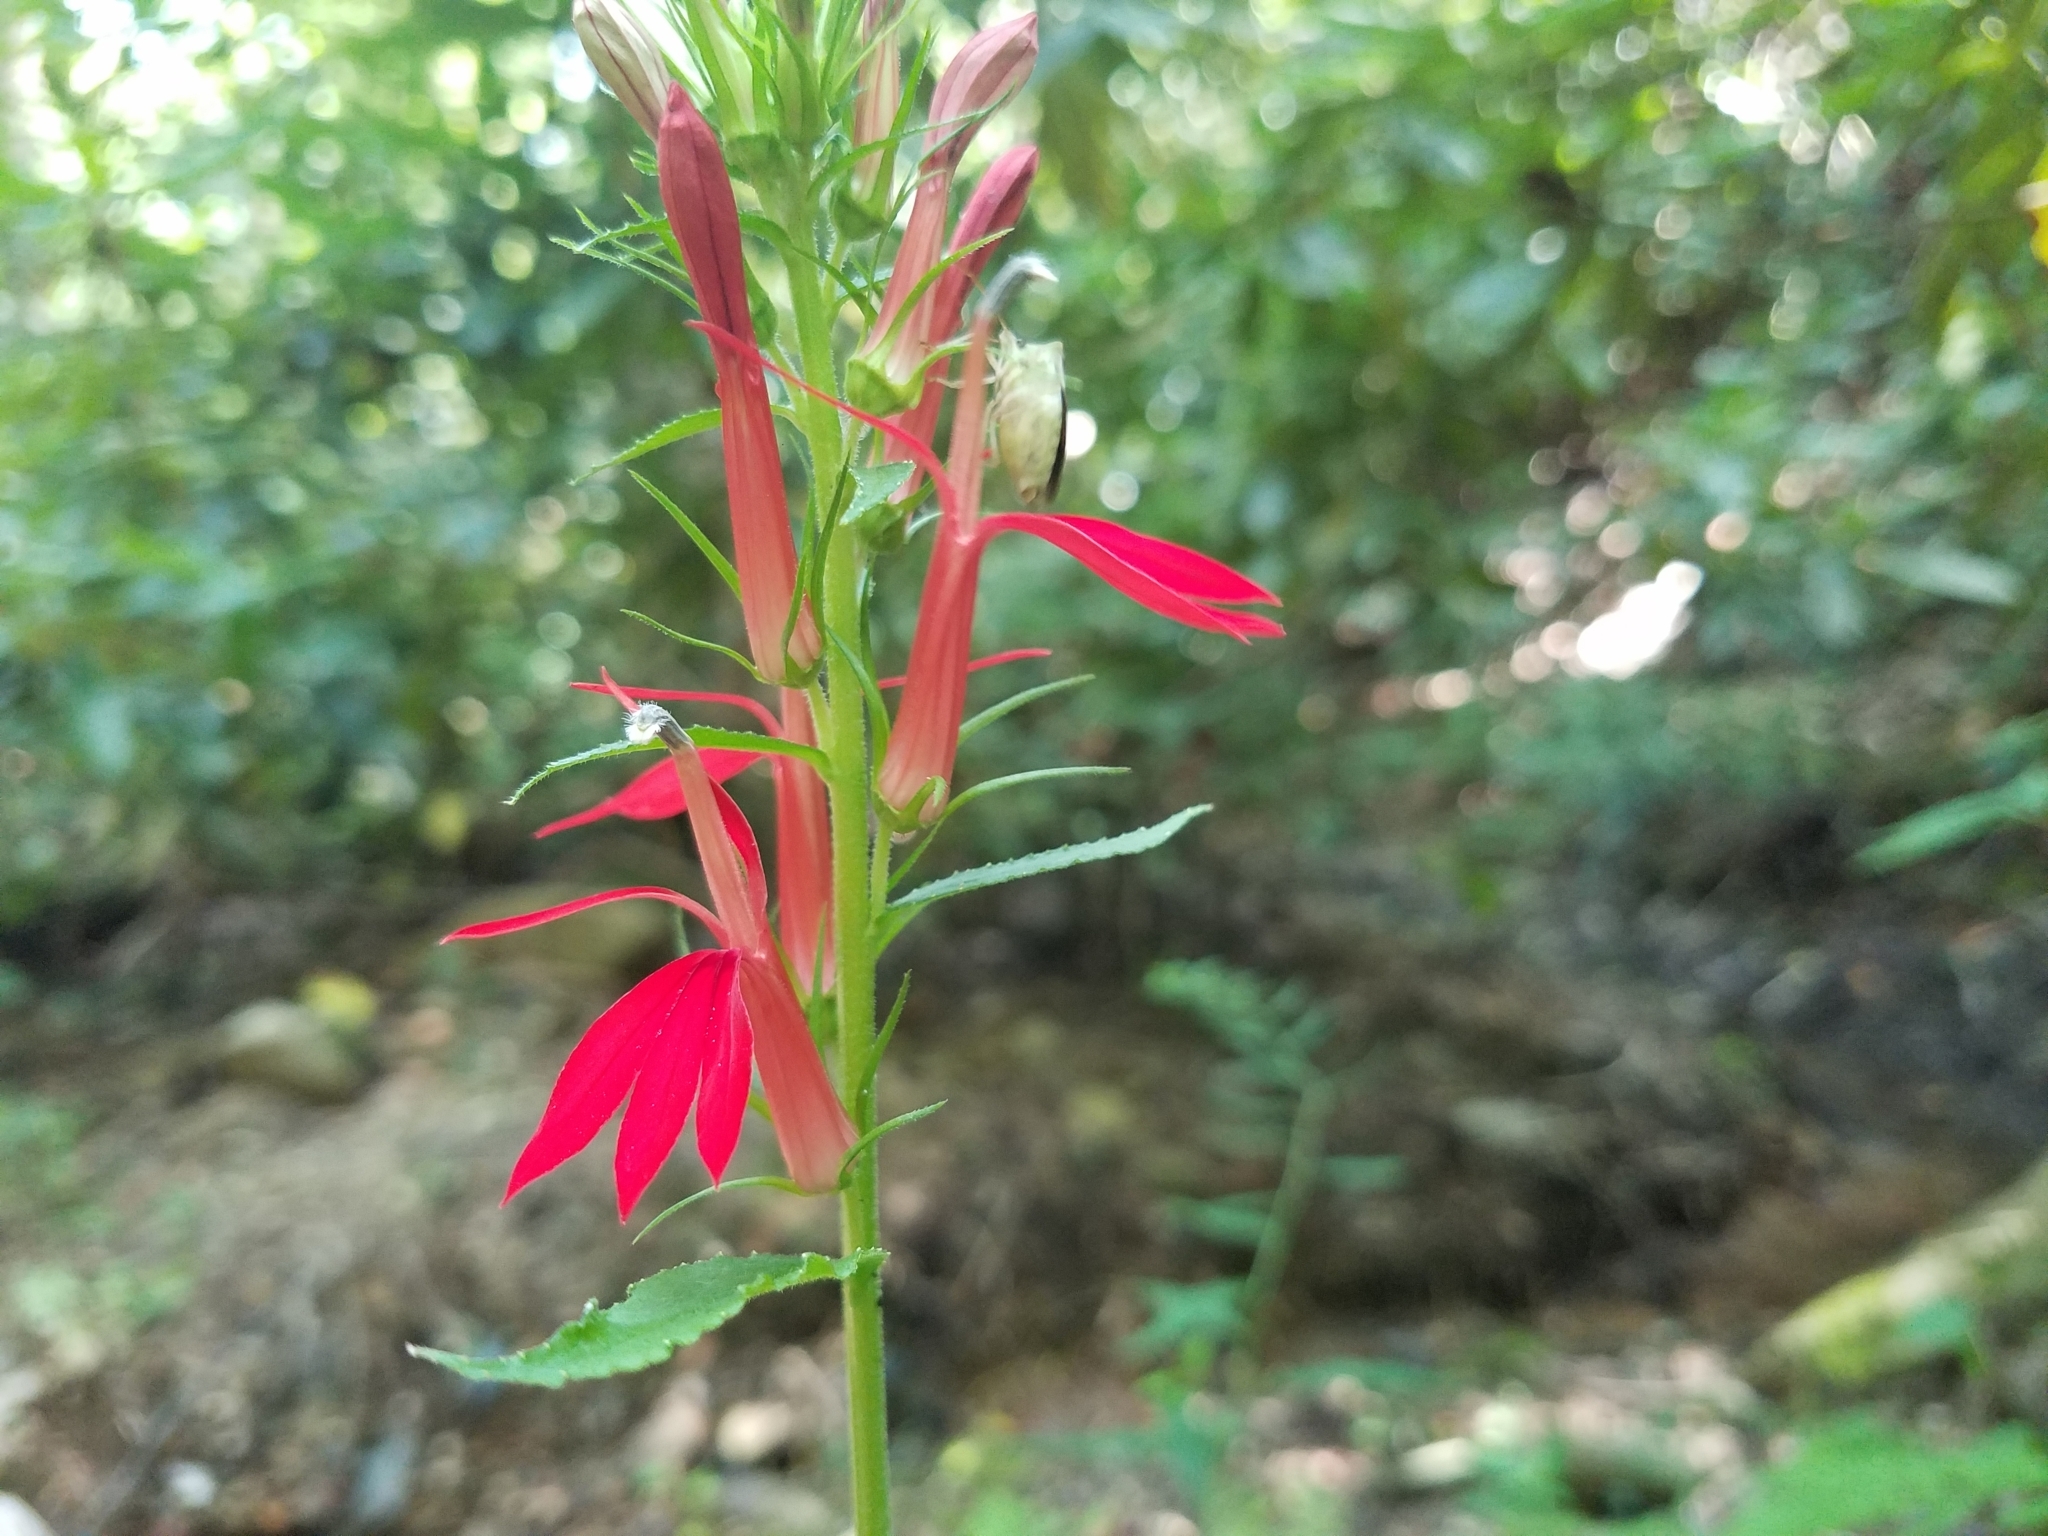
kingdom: Plantae
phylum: Tracheophyta
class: Magnoliopsida
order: Asterales
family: Campanulaceae
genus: Lobelia
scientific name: Lobelia cardinalis
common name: Cardinal flower
